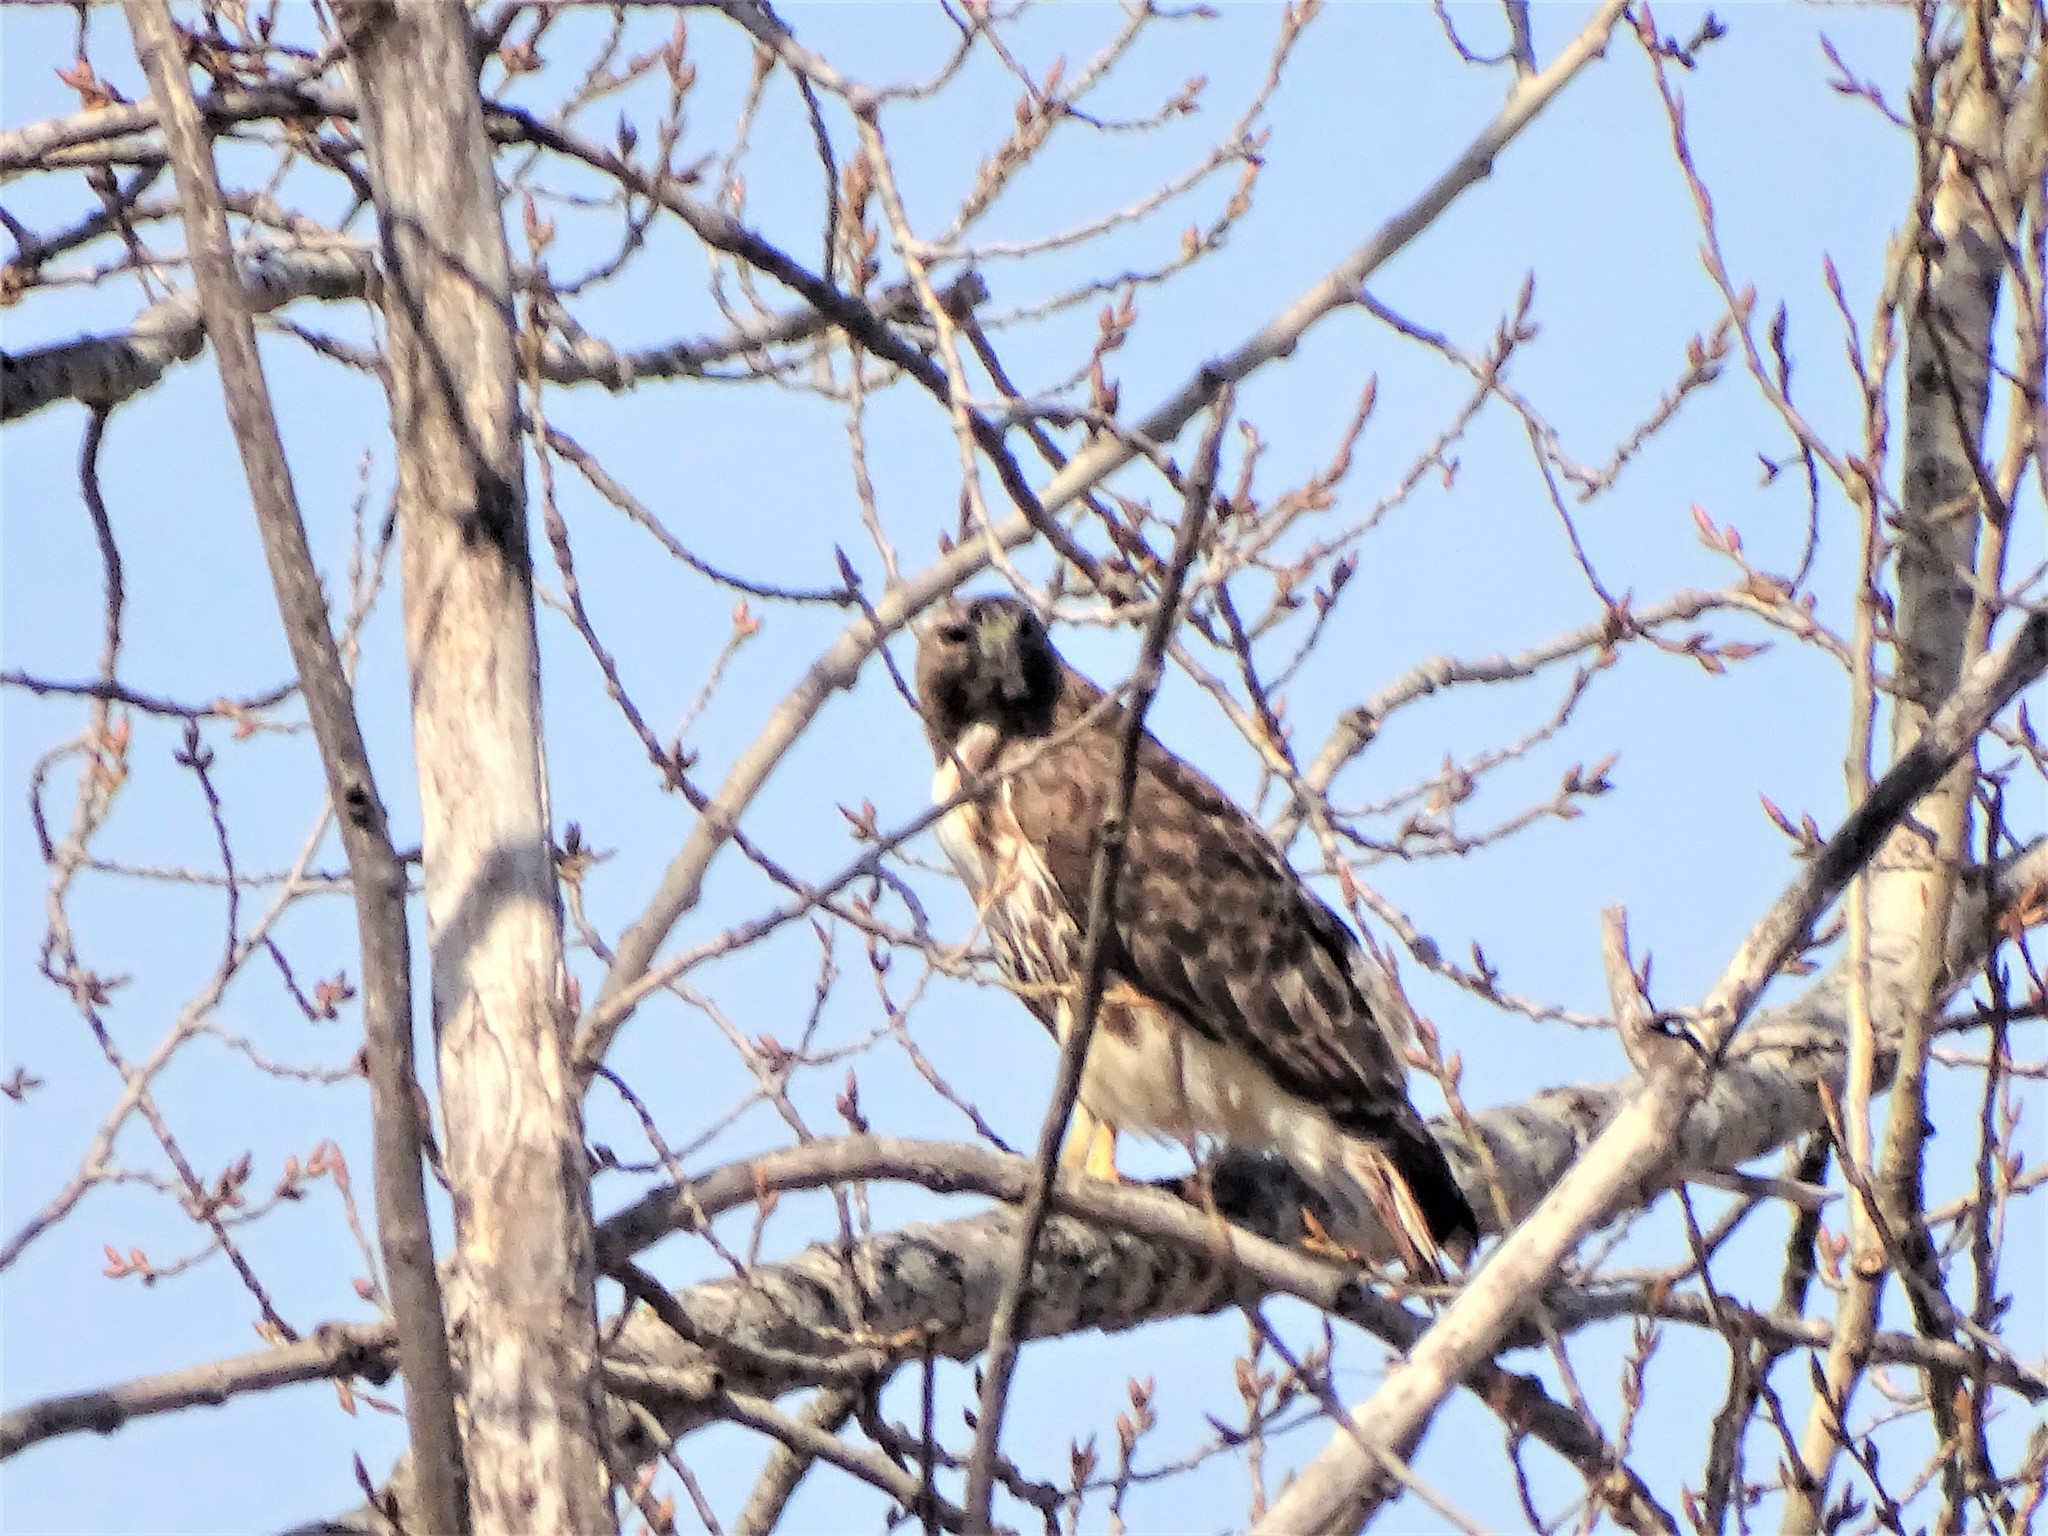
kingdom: Animalia
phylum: Chordata
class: Aves
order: Accipitriformes
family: Accipitridae
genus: Buteo
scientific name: Buteo jamaicensis
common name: Red-tailed hawk
